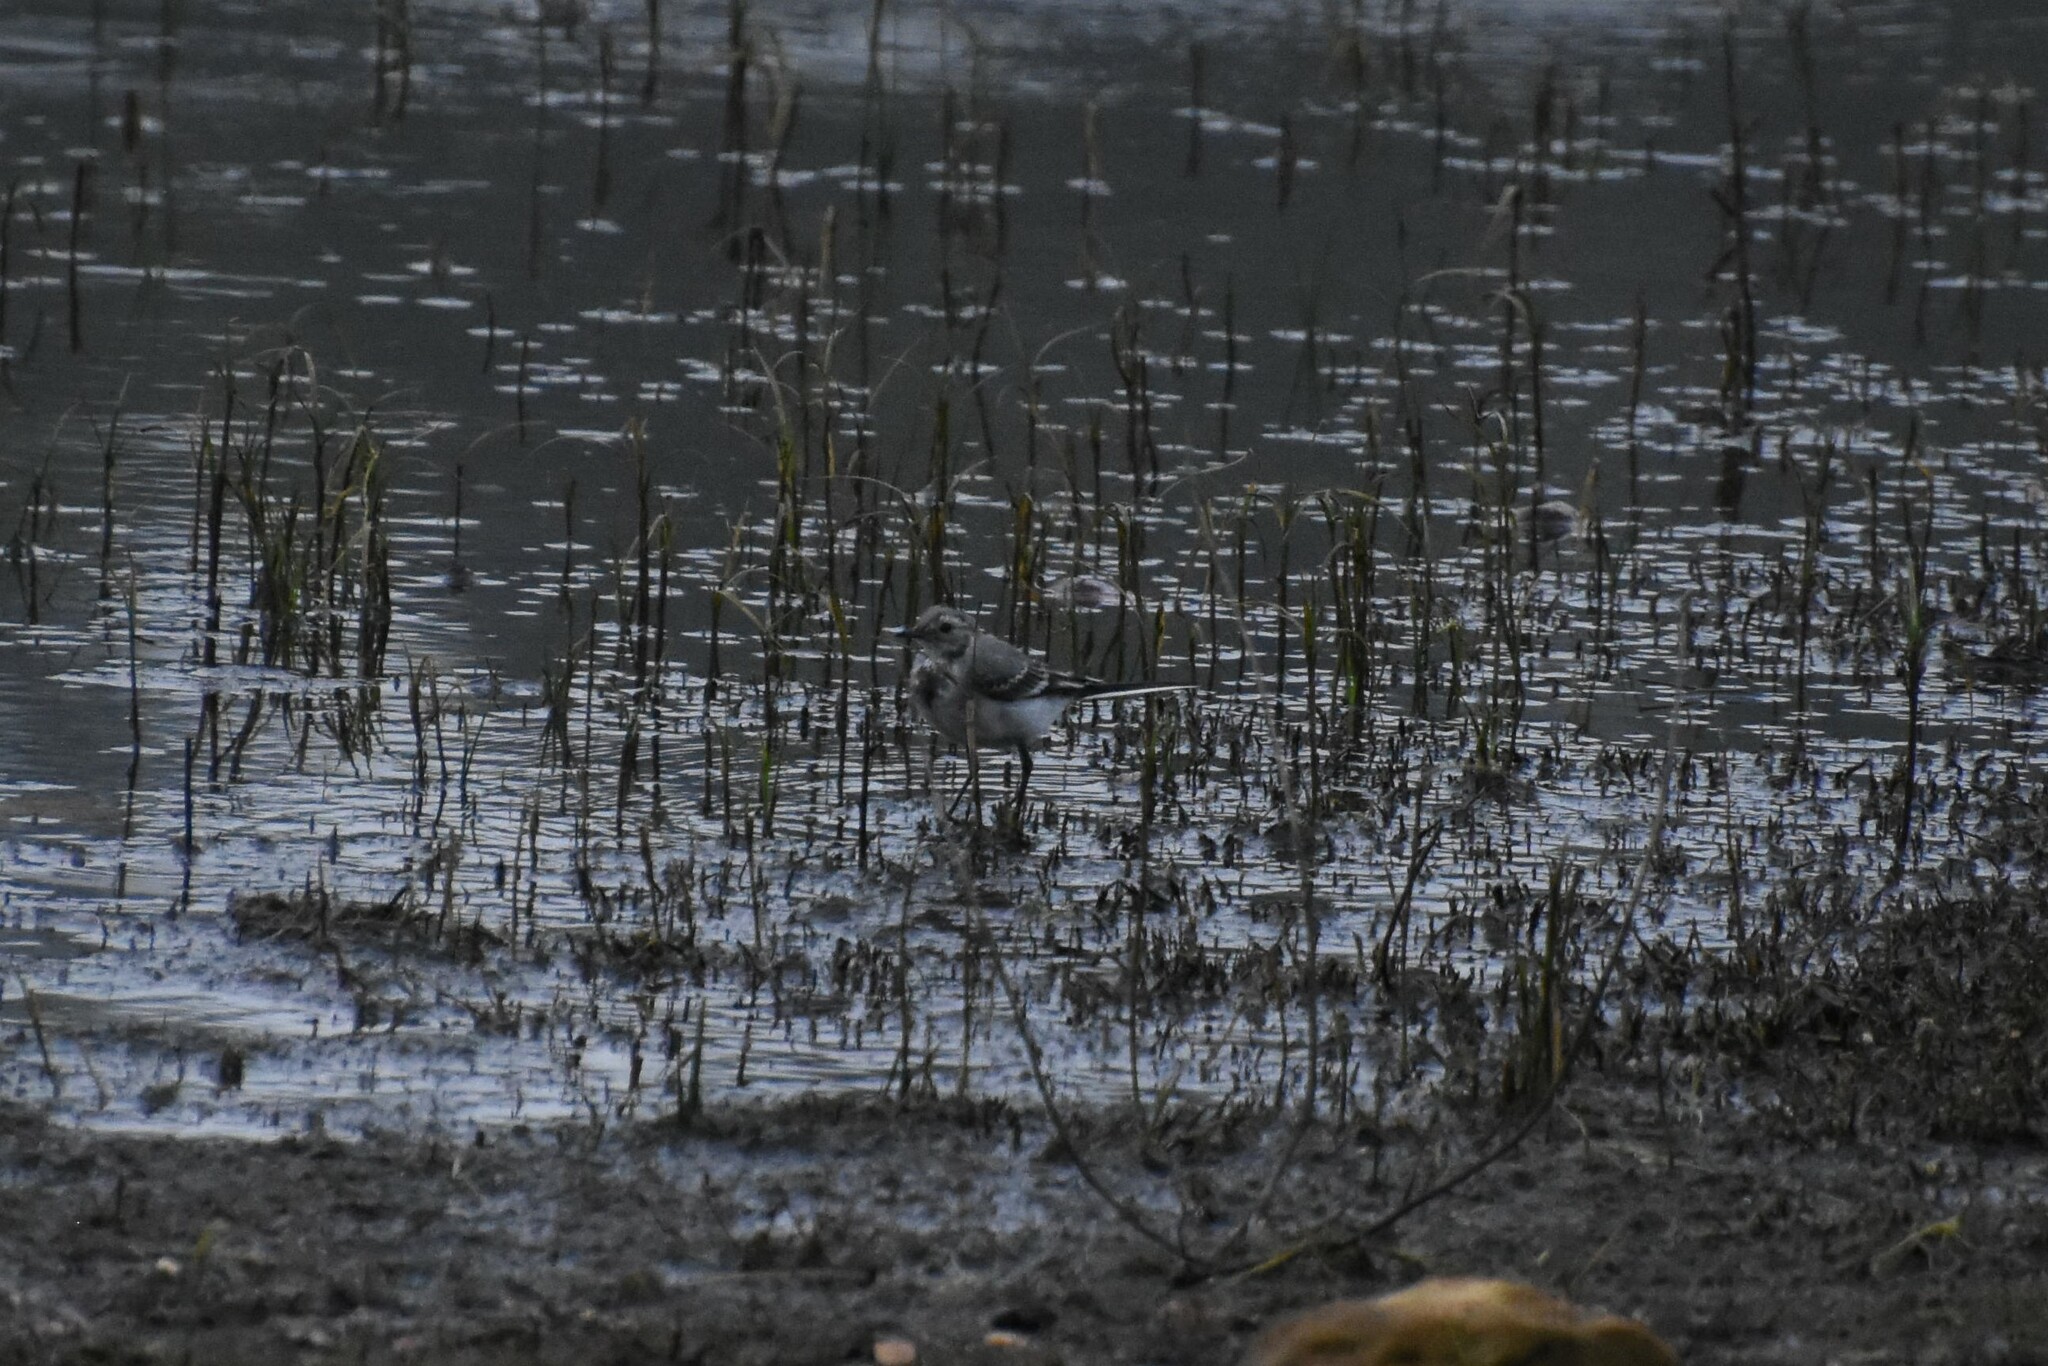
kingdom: Animalia
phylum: Chordata
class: Aves
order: Passeriformes
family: Motacillidae
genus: Motacilla
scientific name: Motacilla alba
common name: White wagtail
